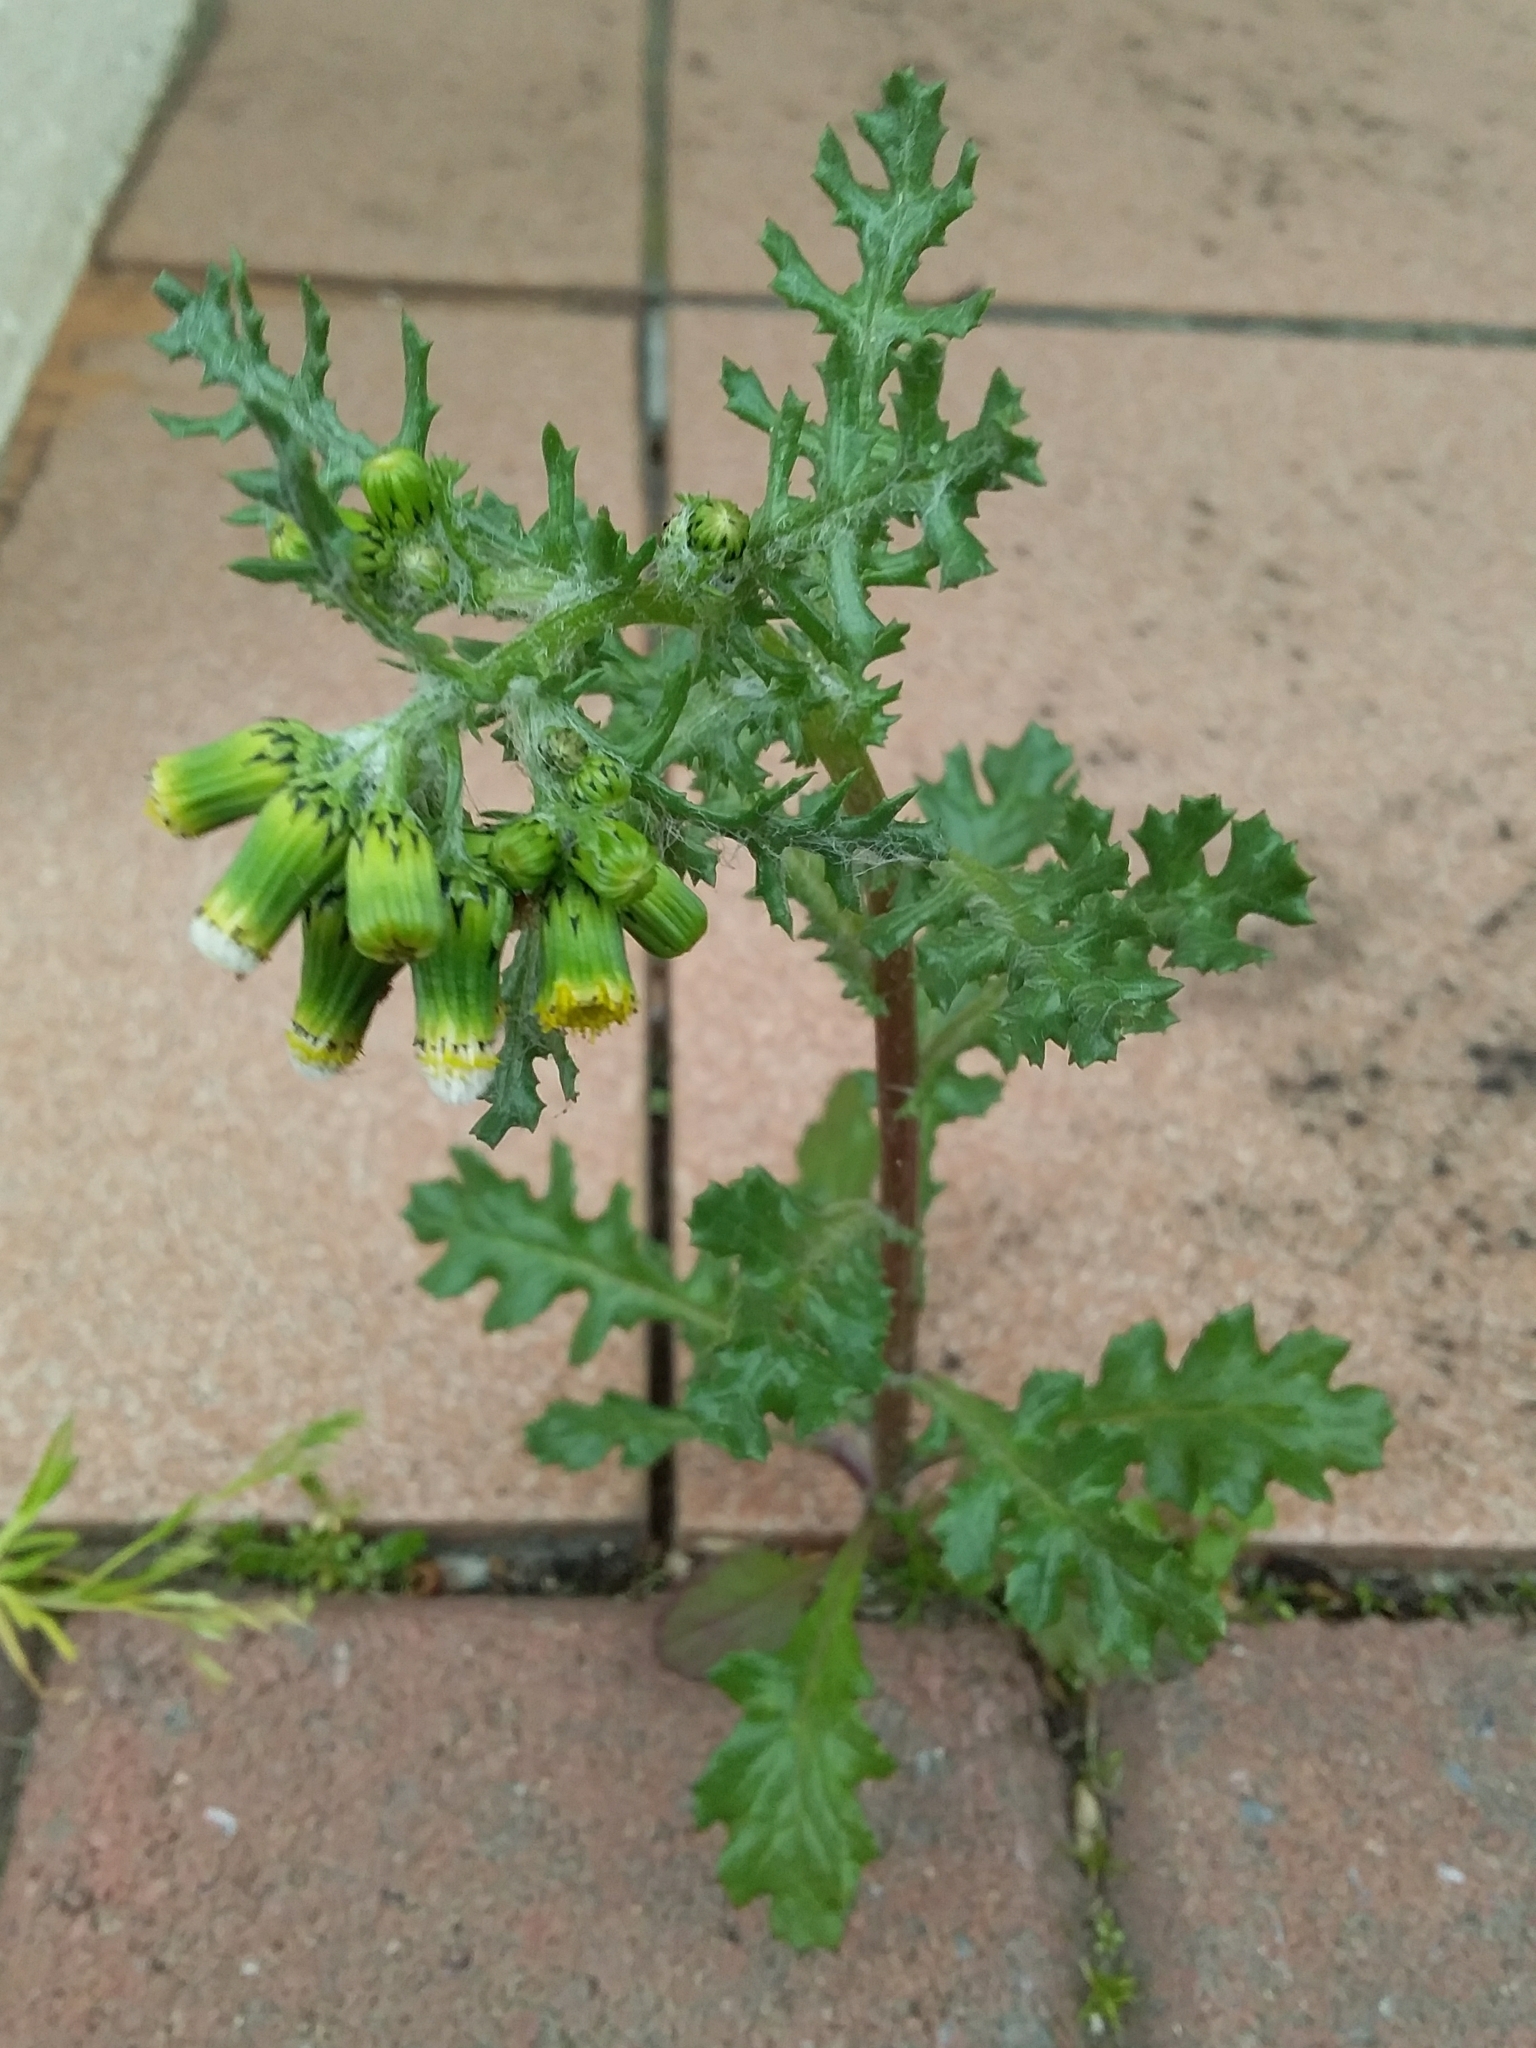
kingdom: Plantae
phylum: Tracheophyta
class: Magnoliopsida
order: Asterales
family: Asteraceae
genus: Senecio
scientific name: Senecio vulgaris
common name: Old-man-in-the-spring
